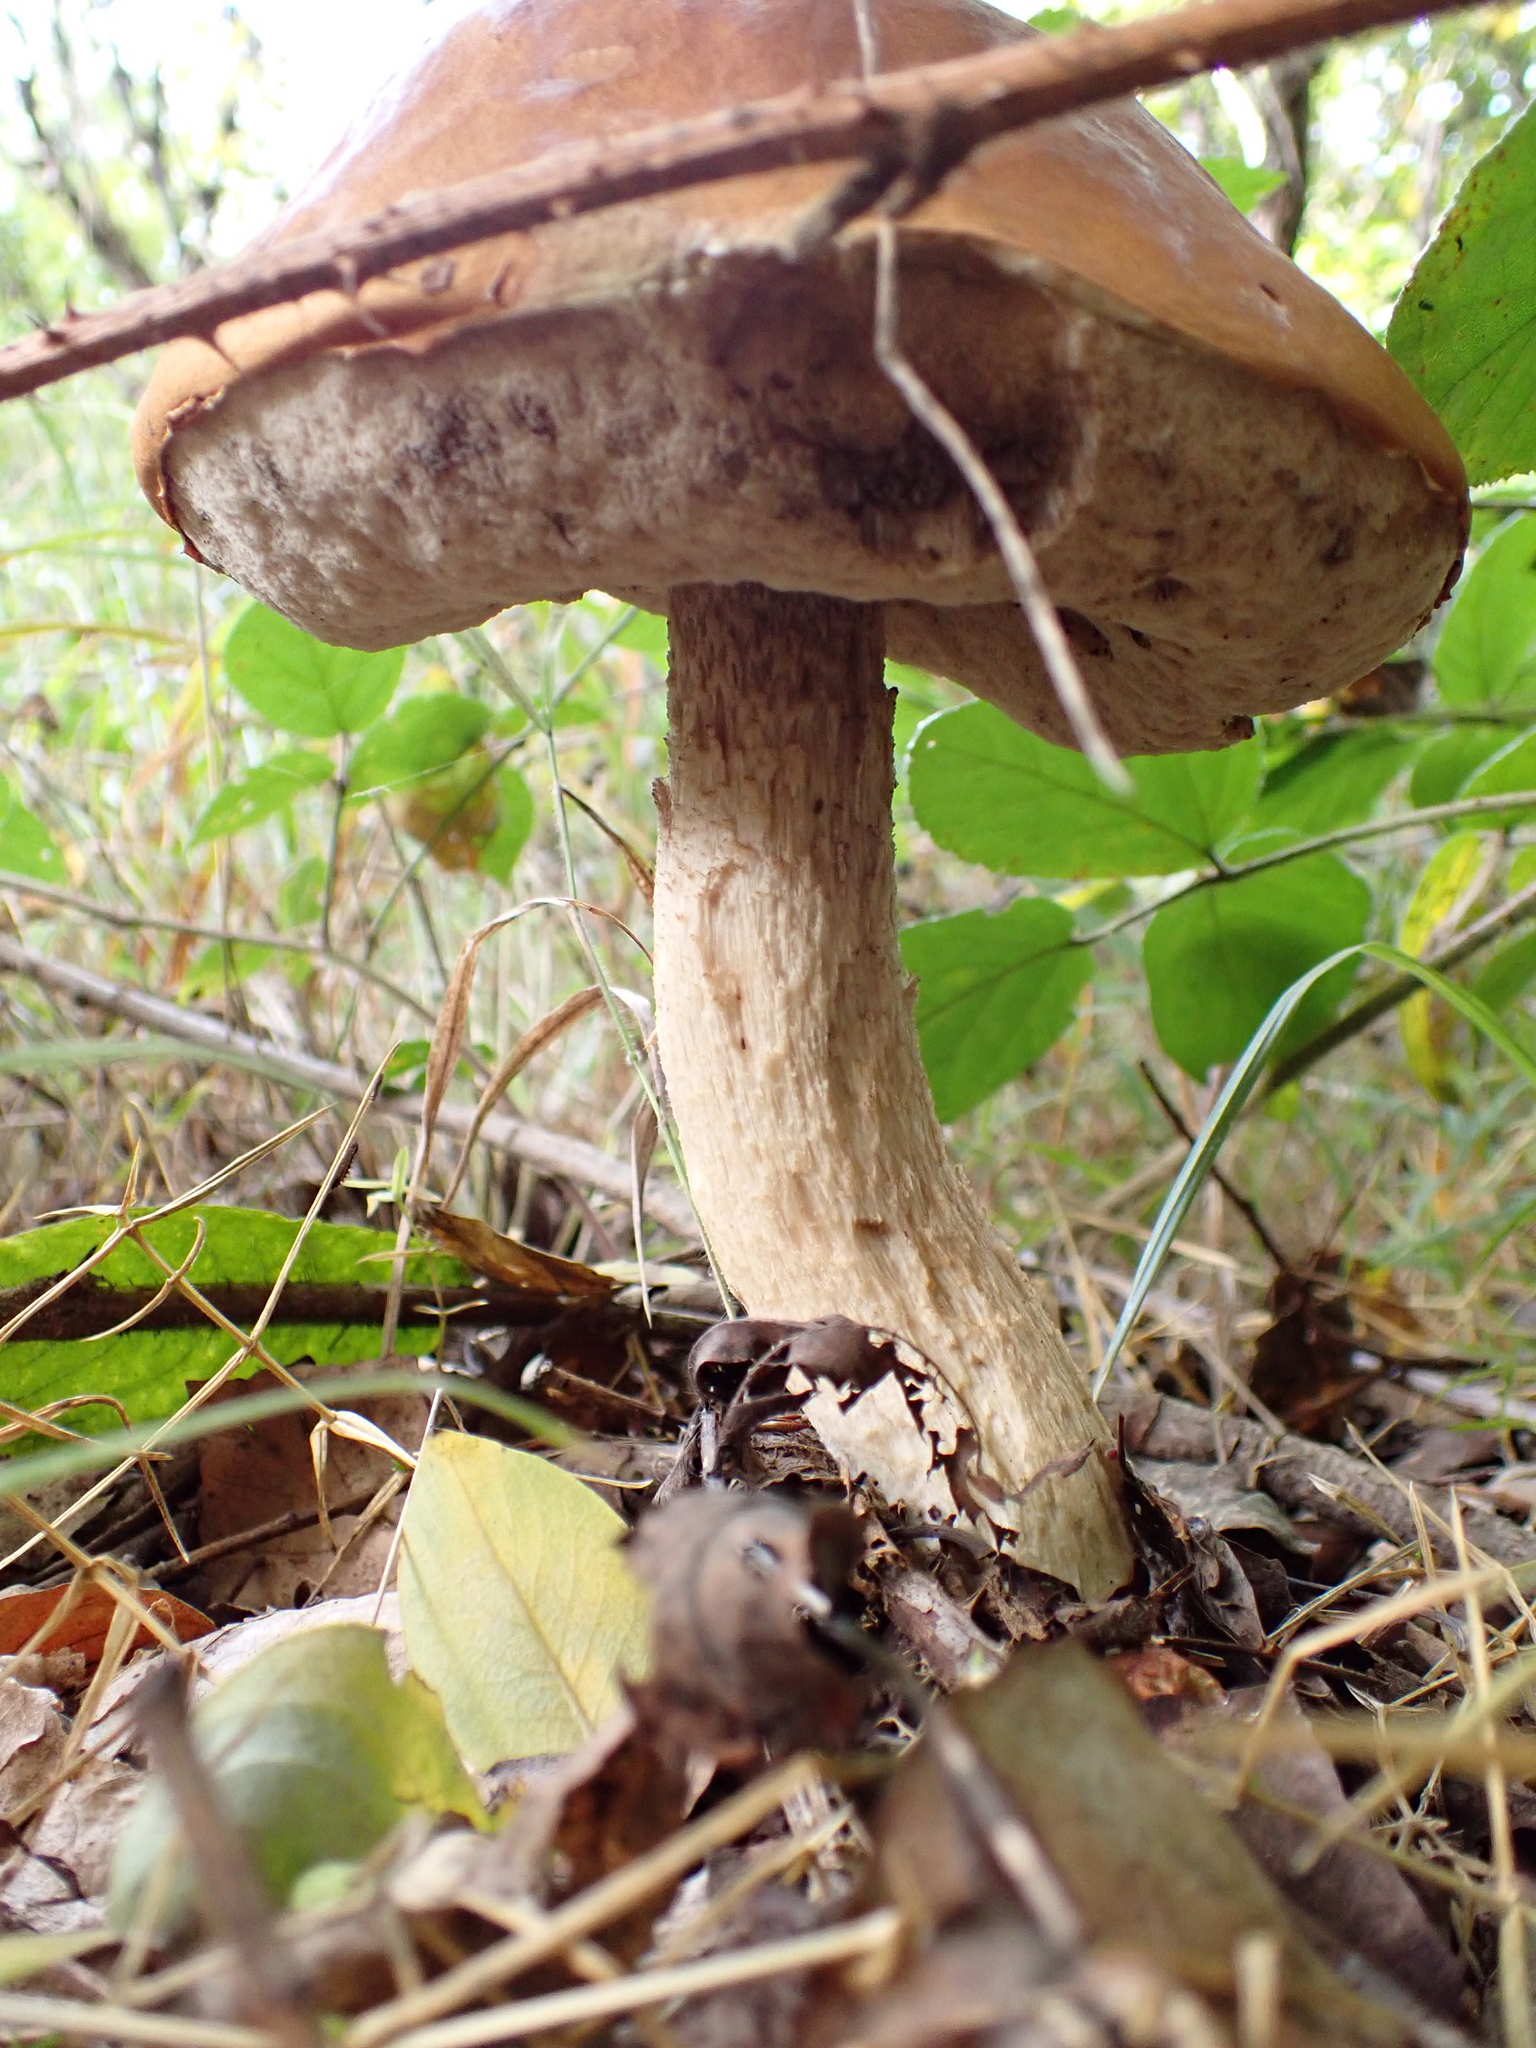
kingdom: Fungi
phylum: Basidiomycota
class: Agaricomycetes
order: Boletales
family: Boletaceae
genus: Leccinum
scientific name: Leccinum albostipitatum
